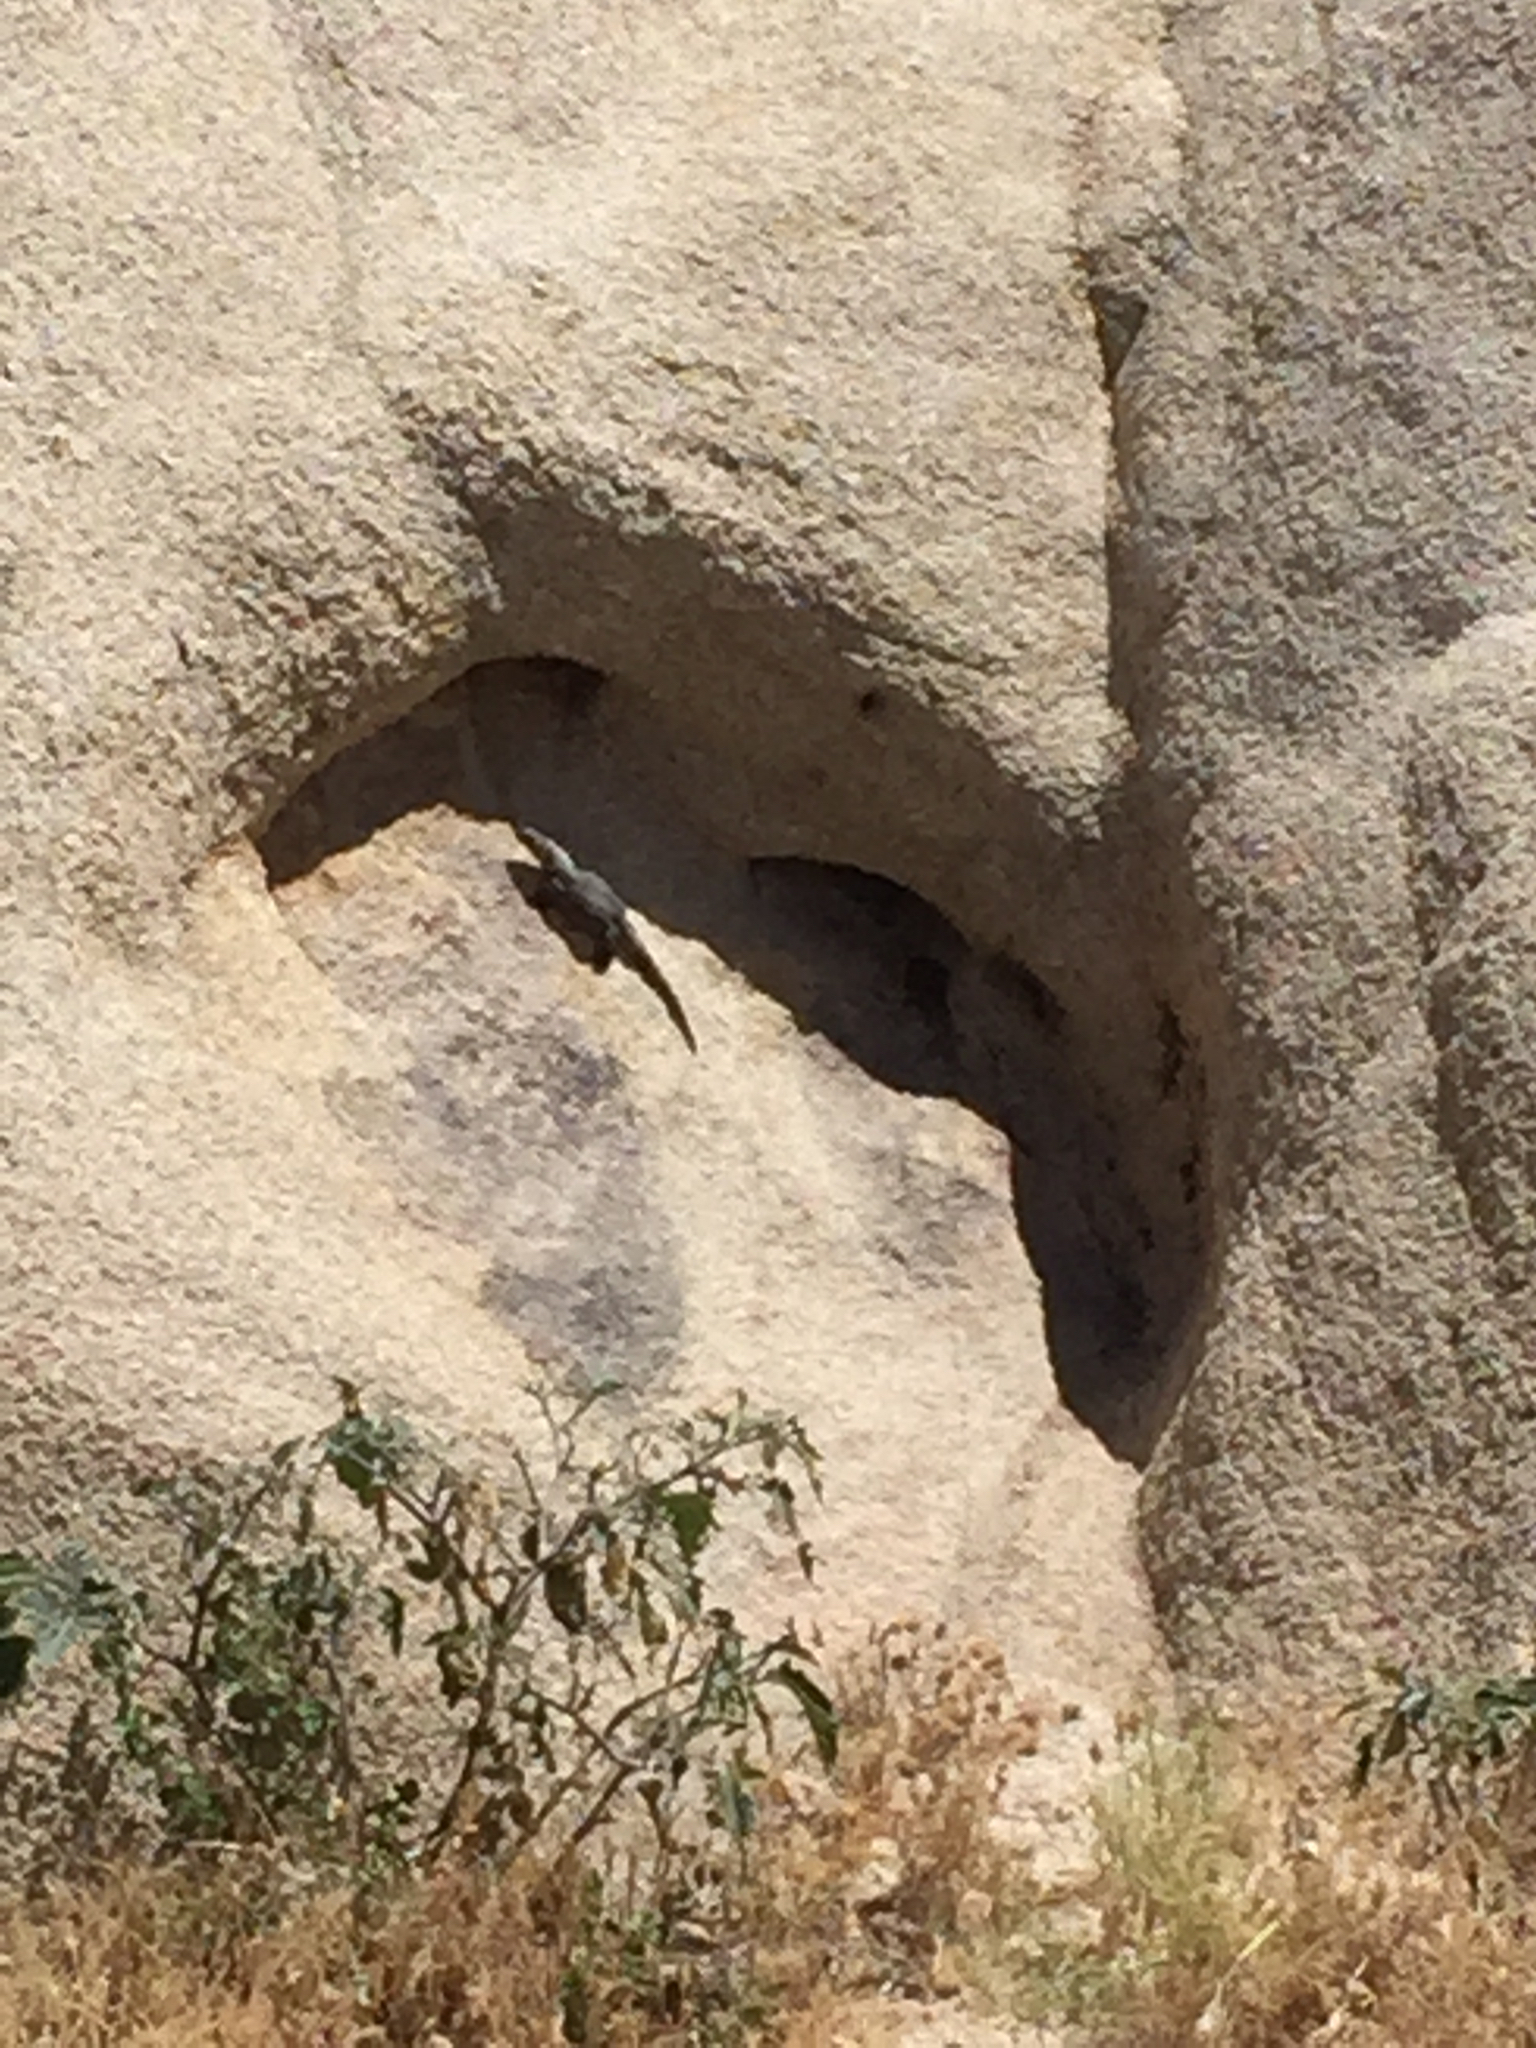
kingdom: Animalia
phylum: Chordata
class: Squamata
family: Iguanidae
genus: Sauromalus
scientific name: Sauromalus ater
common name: Northern chuckwalla
